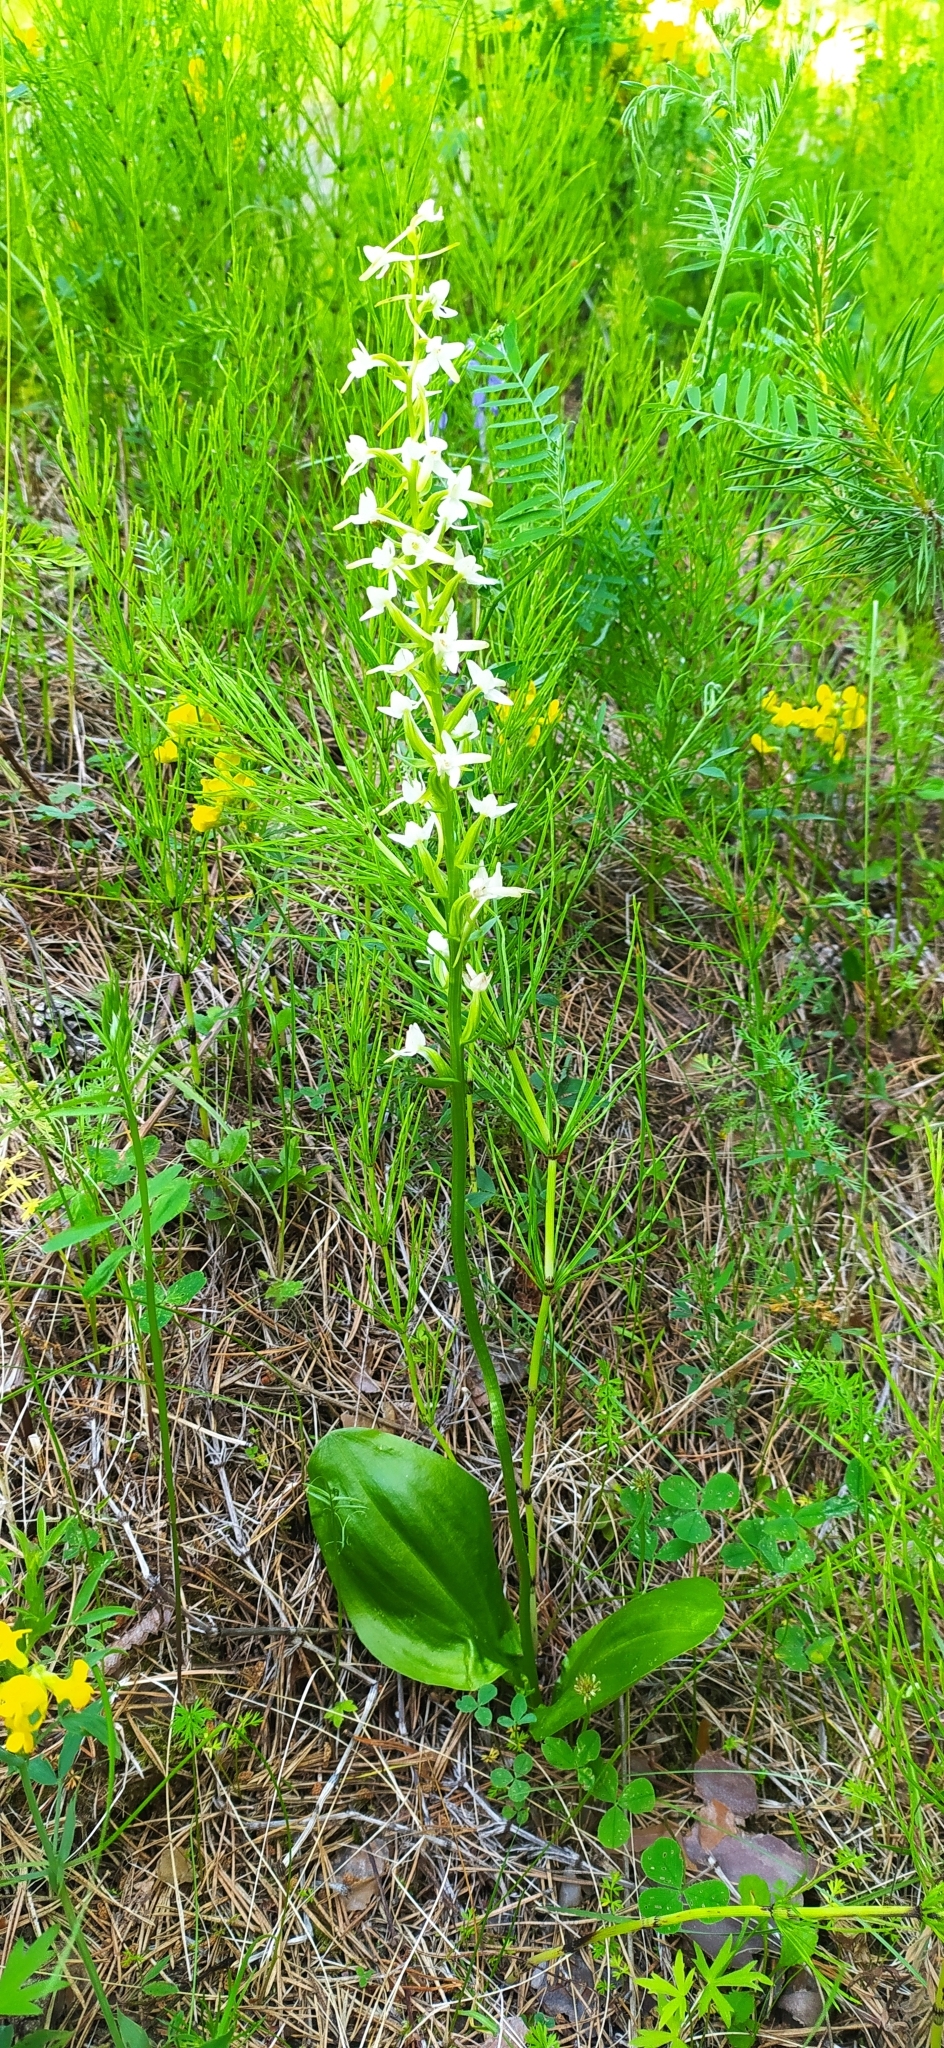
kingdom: Plantae
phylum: Tracheophyta
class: Liliopsida
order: Asparagales
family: Orchidaceae
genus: Platanthera
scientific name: Platanthera bifolia
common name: Lesser butterfly-orchid
